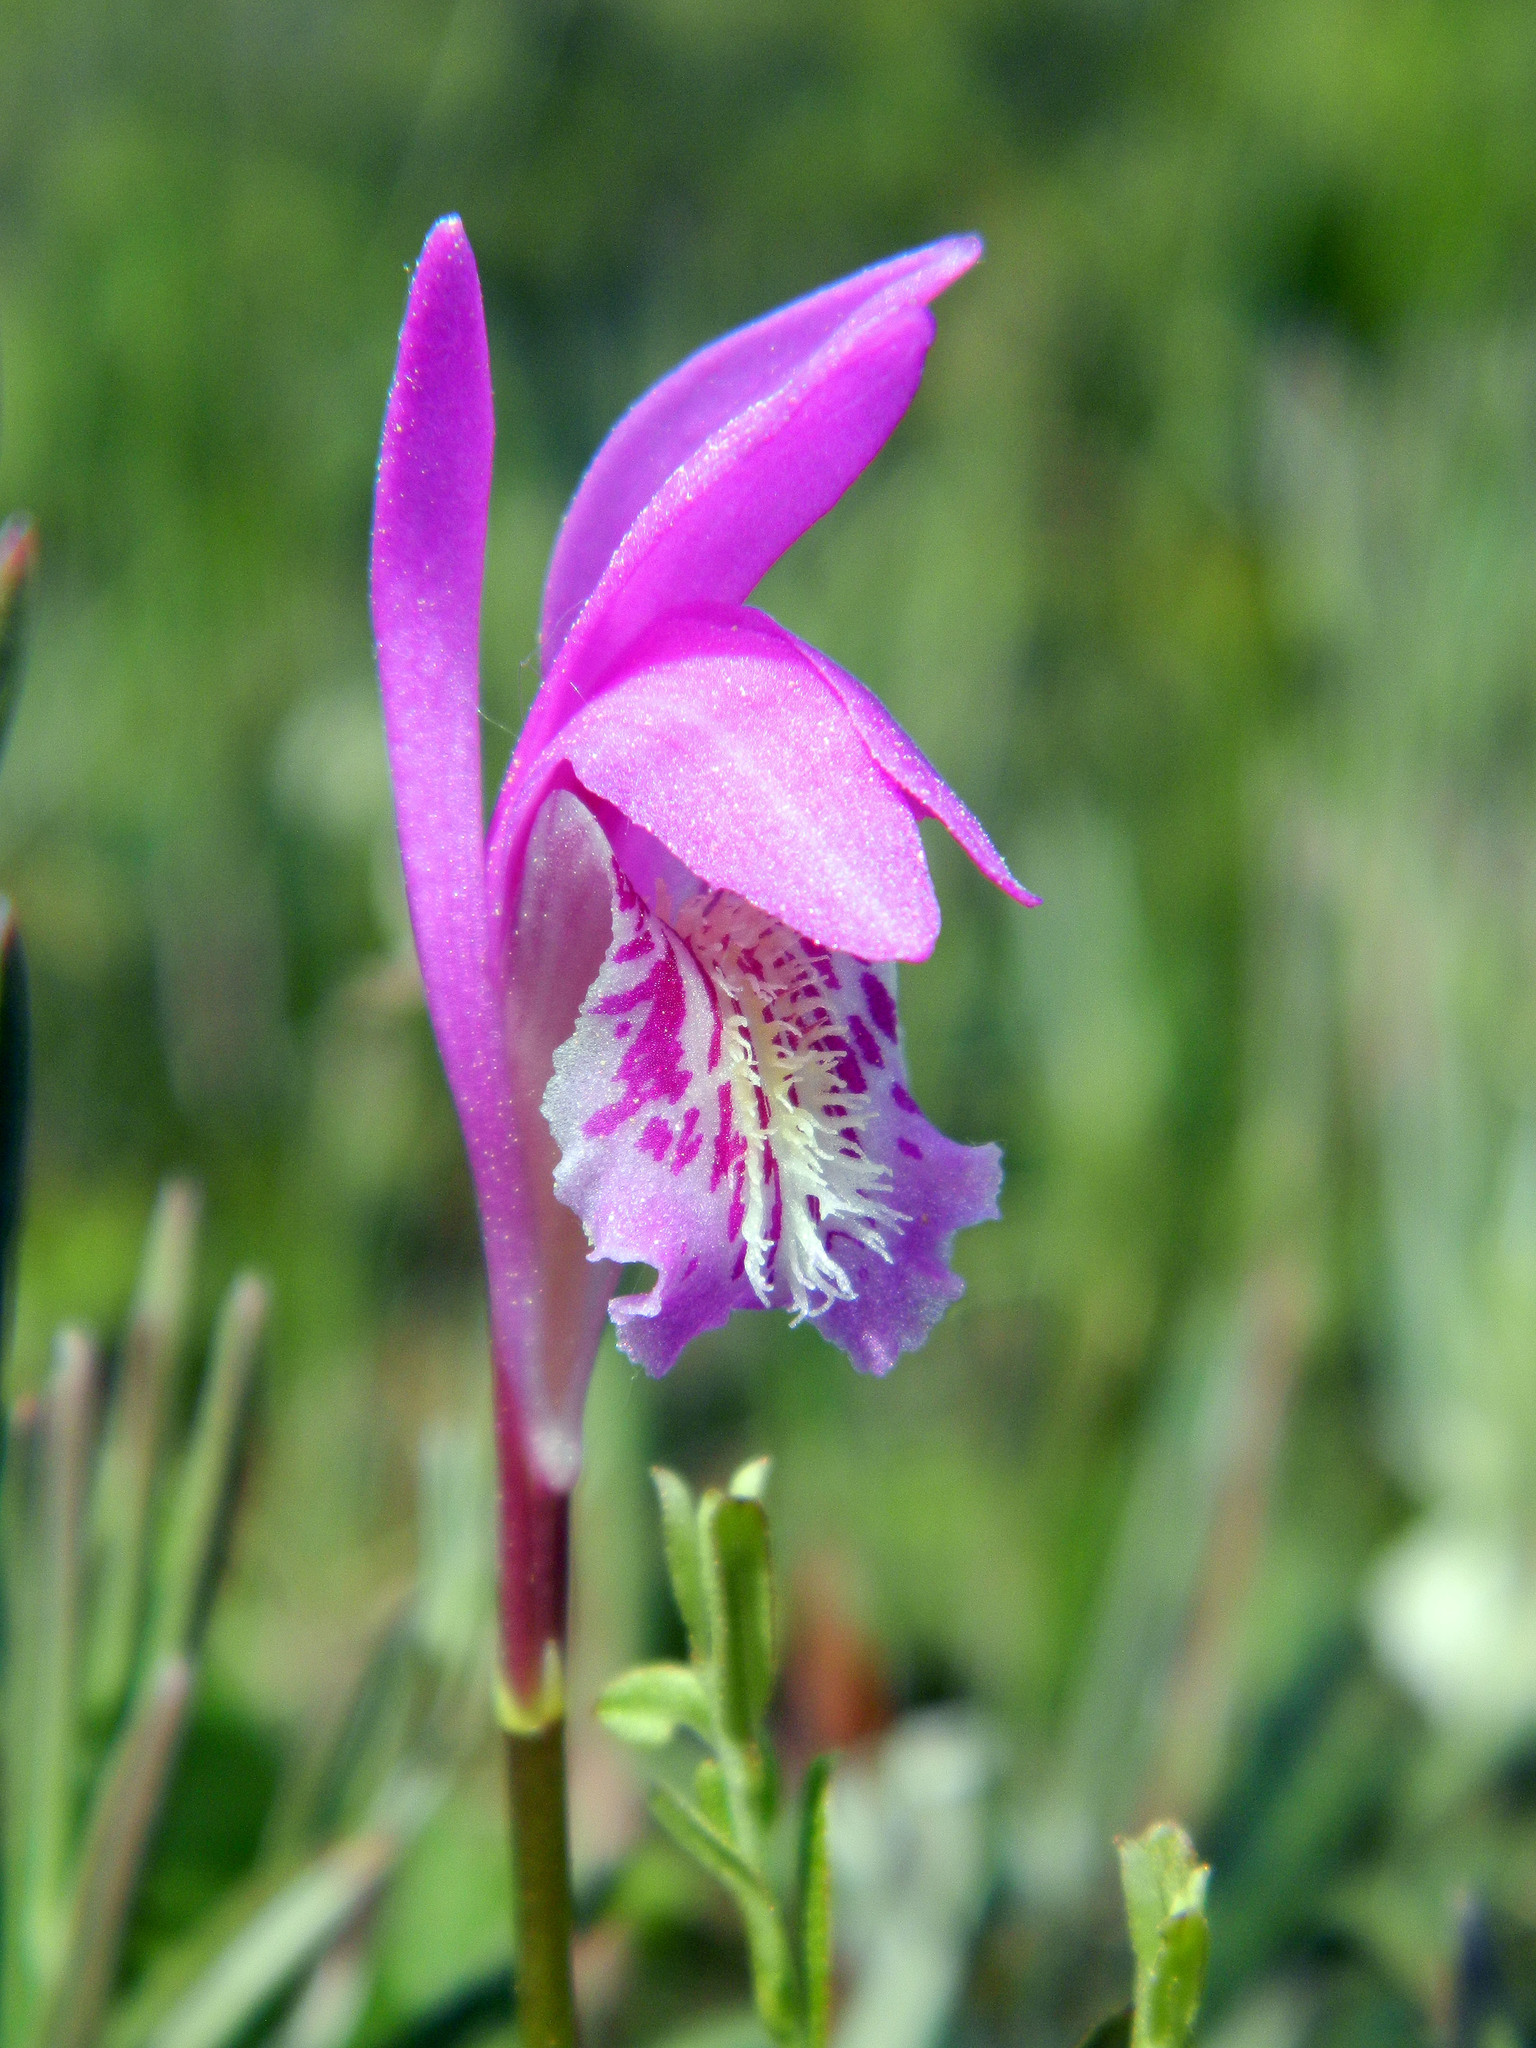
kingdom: Plantae
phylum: Tracheophyta
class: Liliopsida
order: Asparagales
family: Orchidaceae
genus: Arethusa
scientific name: Arethusa bulbosa
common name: Arethusa
